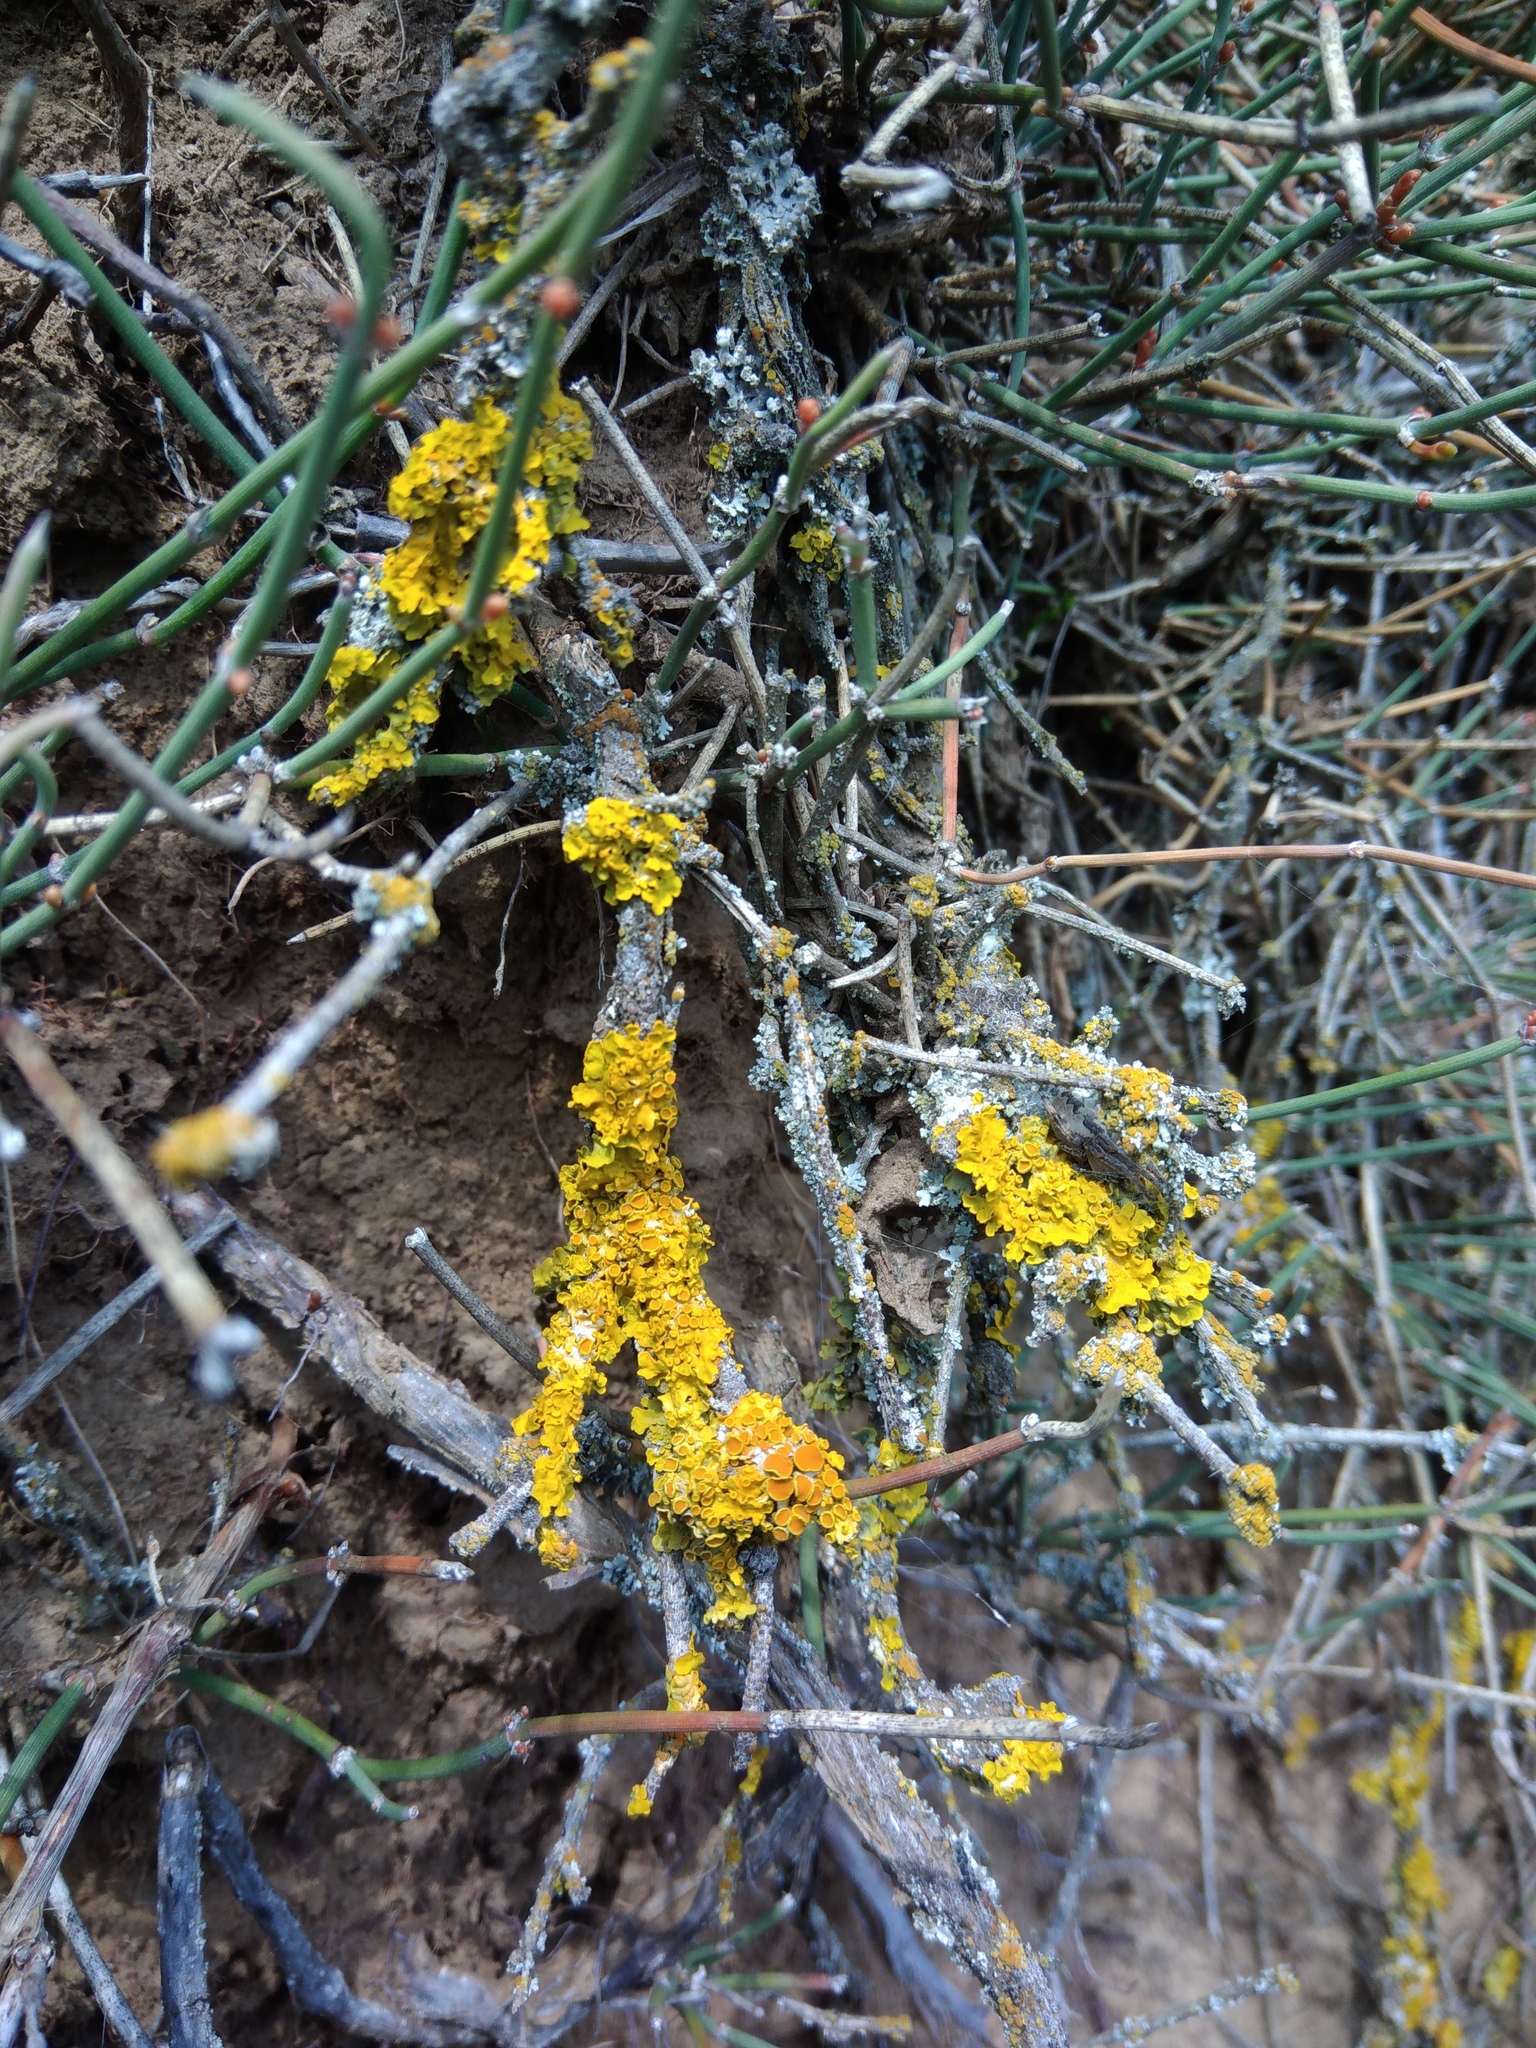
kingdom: Fungi
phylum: Ascomycota
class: Lecanoromycetes
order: Teloschistales
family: Teloschistaceae
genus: Xanthoria
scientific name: Xanthoria parietina
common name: Common orange lichen
